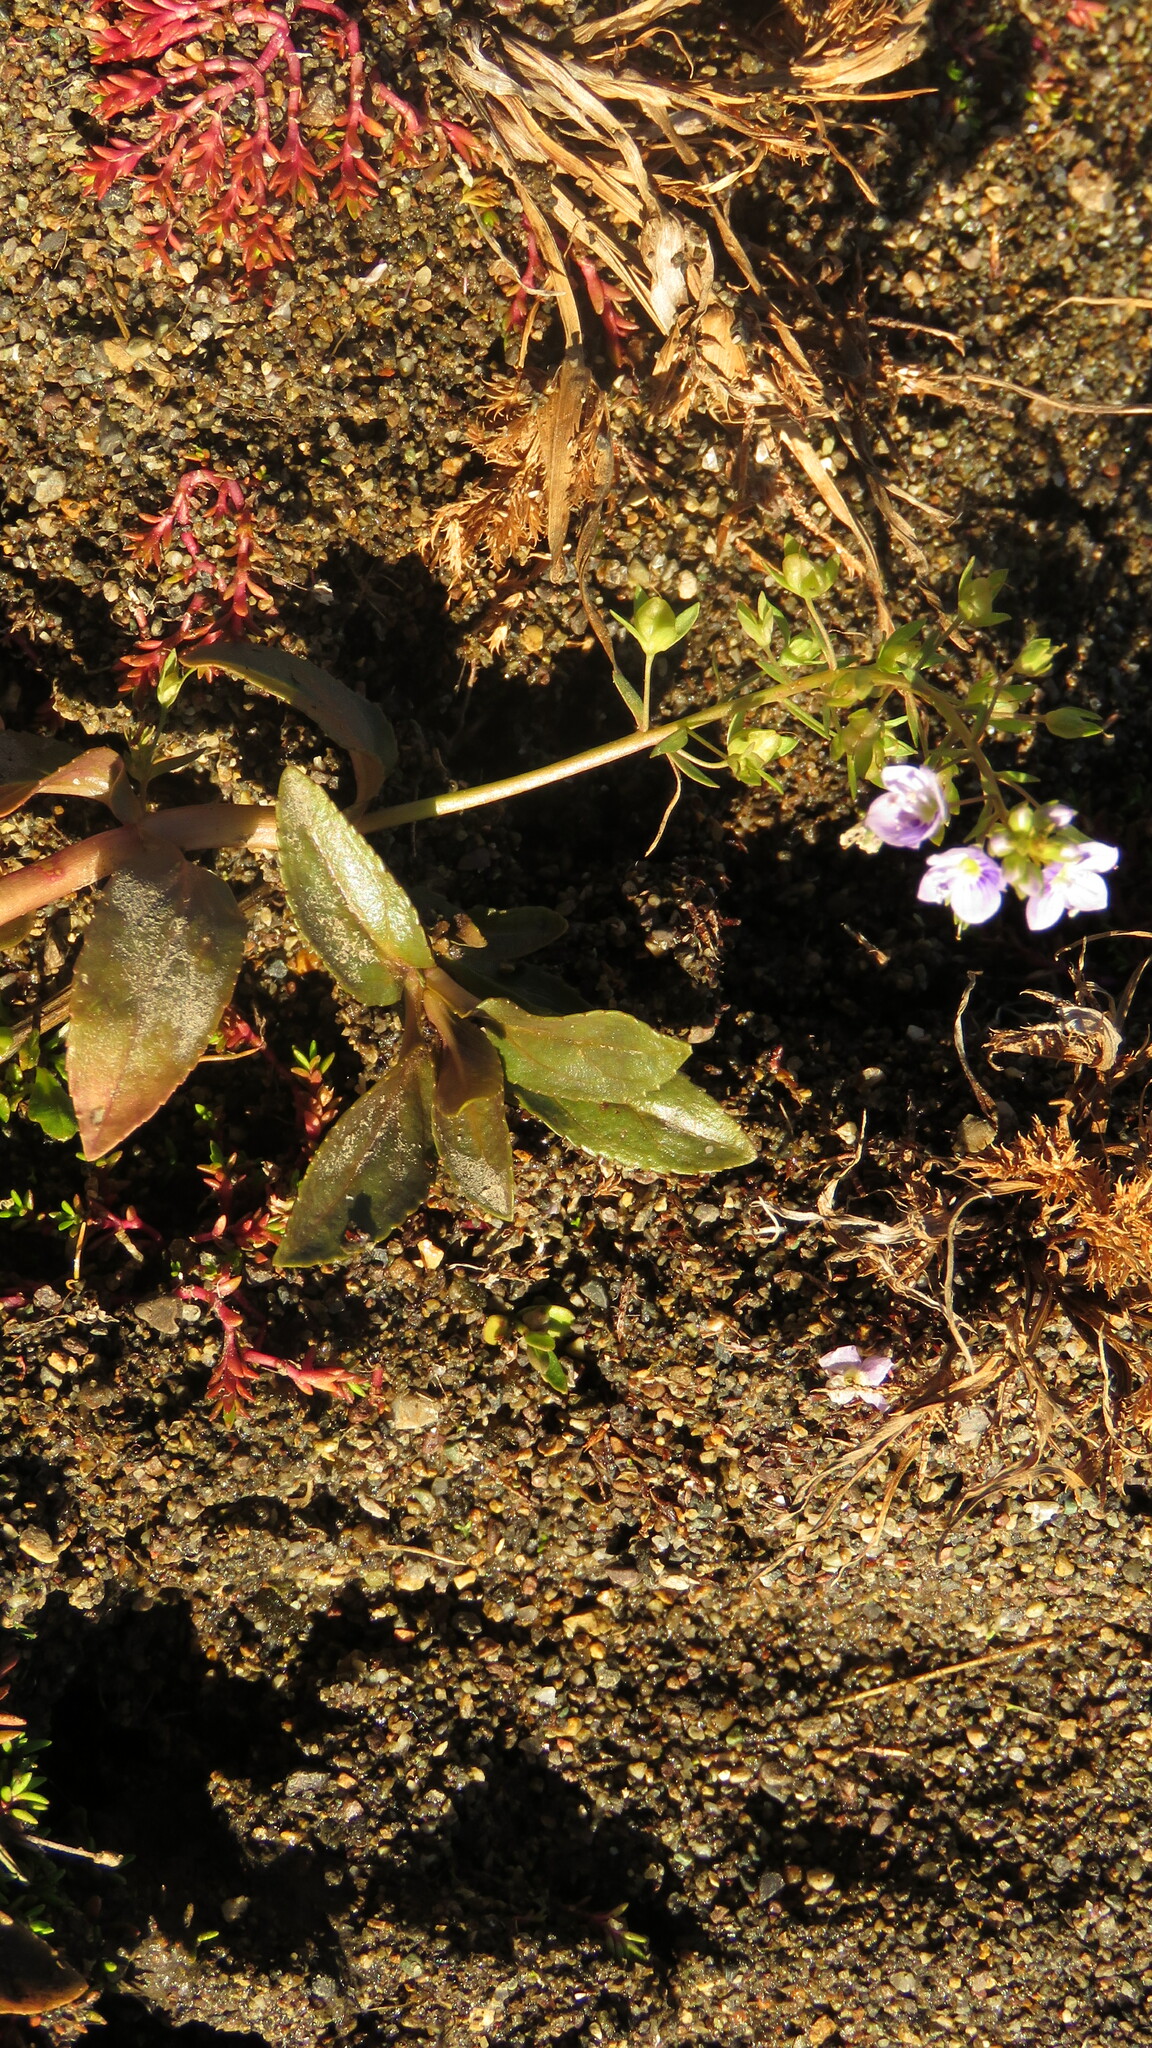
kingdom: Plantae
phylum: Tracheophyta
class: Magnoliopsida
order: Lamiales
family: Plantaginaceae
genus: Veronica
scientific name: Veronica anagallis-aquatica
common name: Water speedwell
